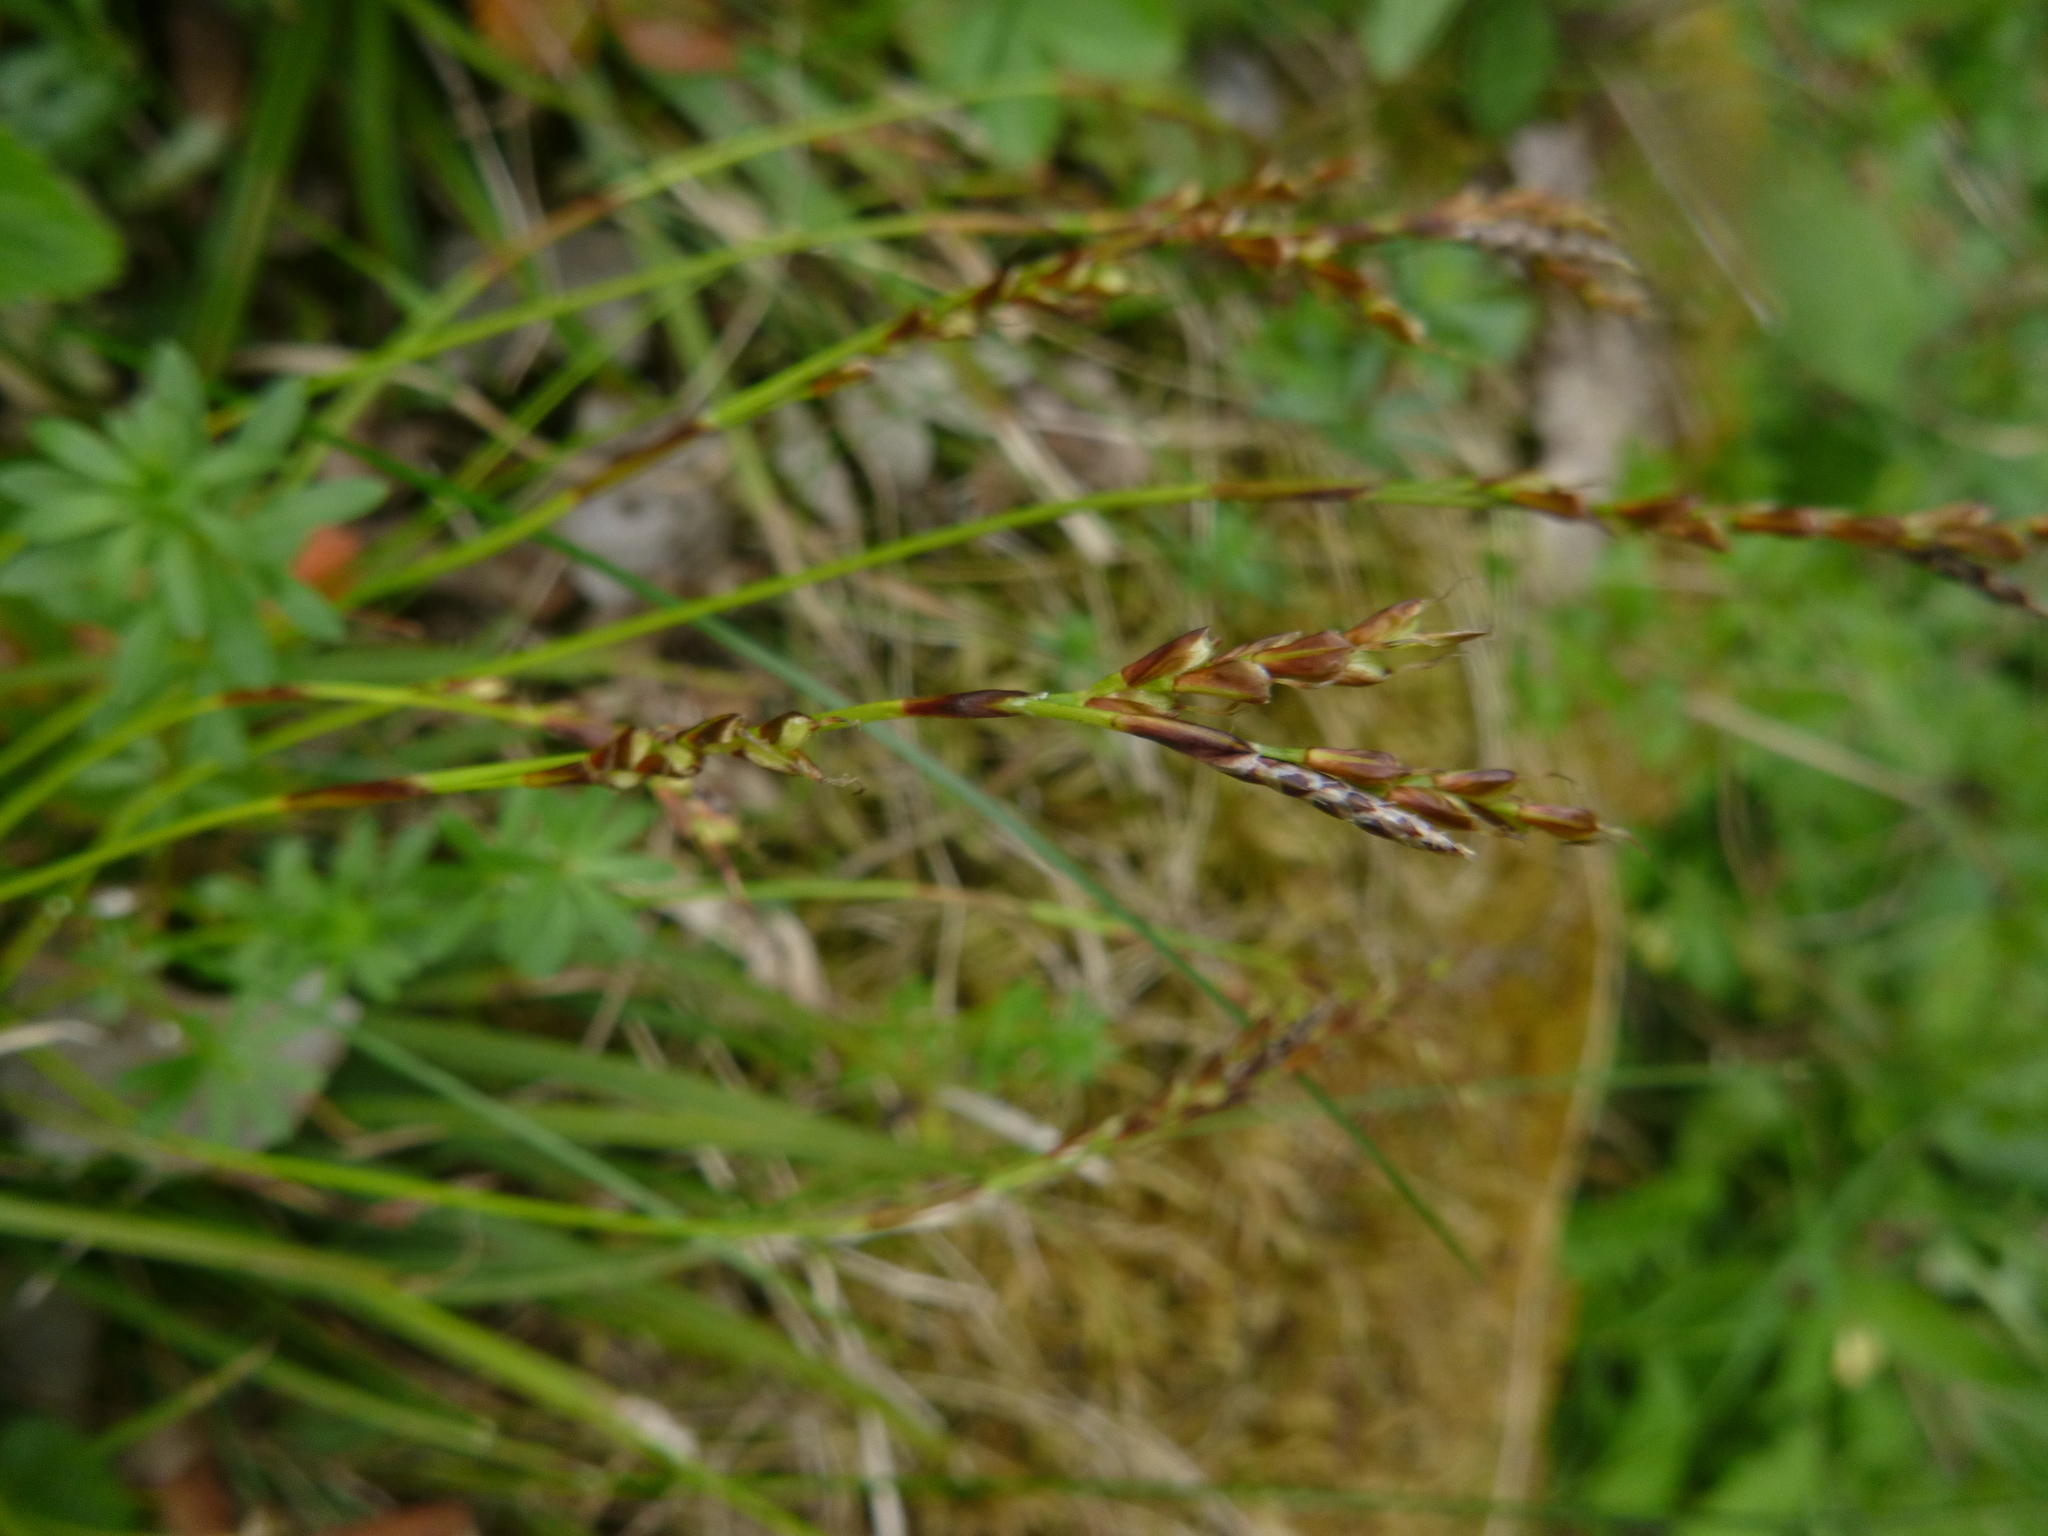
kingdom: Plantae
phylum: Tracheophyta
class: Liliopsida
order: Poales
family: Cyperaceae
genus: Carex
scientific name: Carex digitata
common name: Fingered sedge
